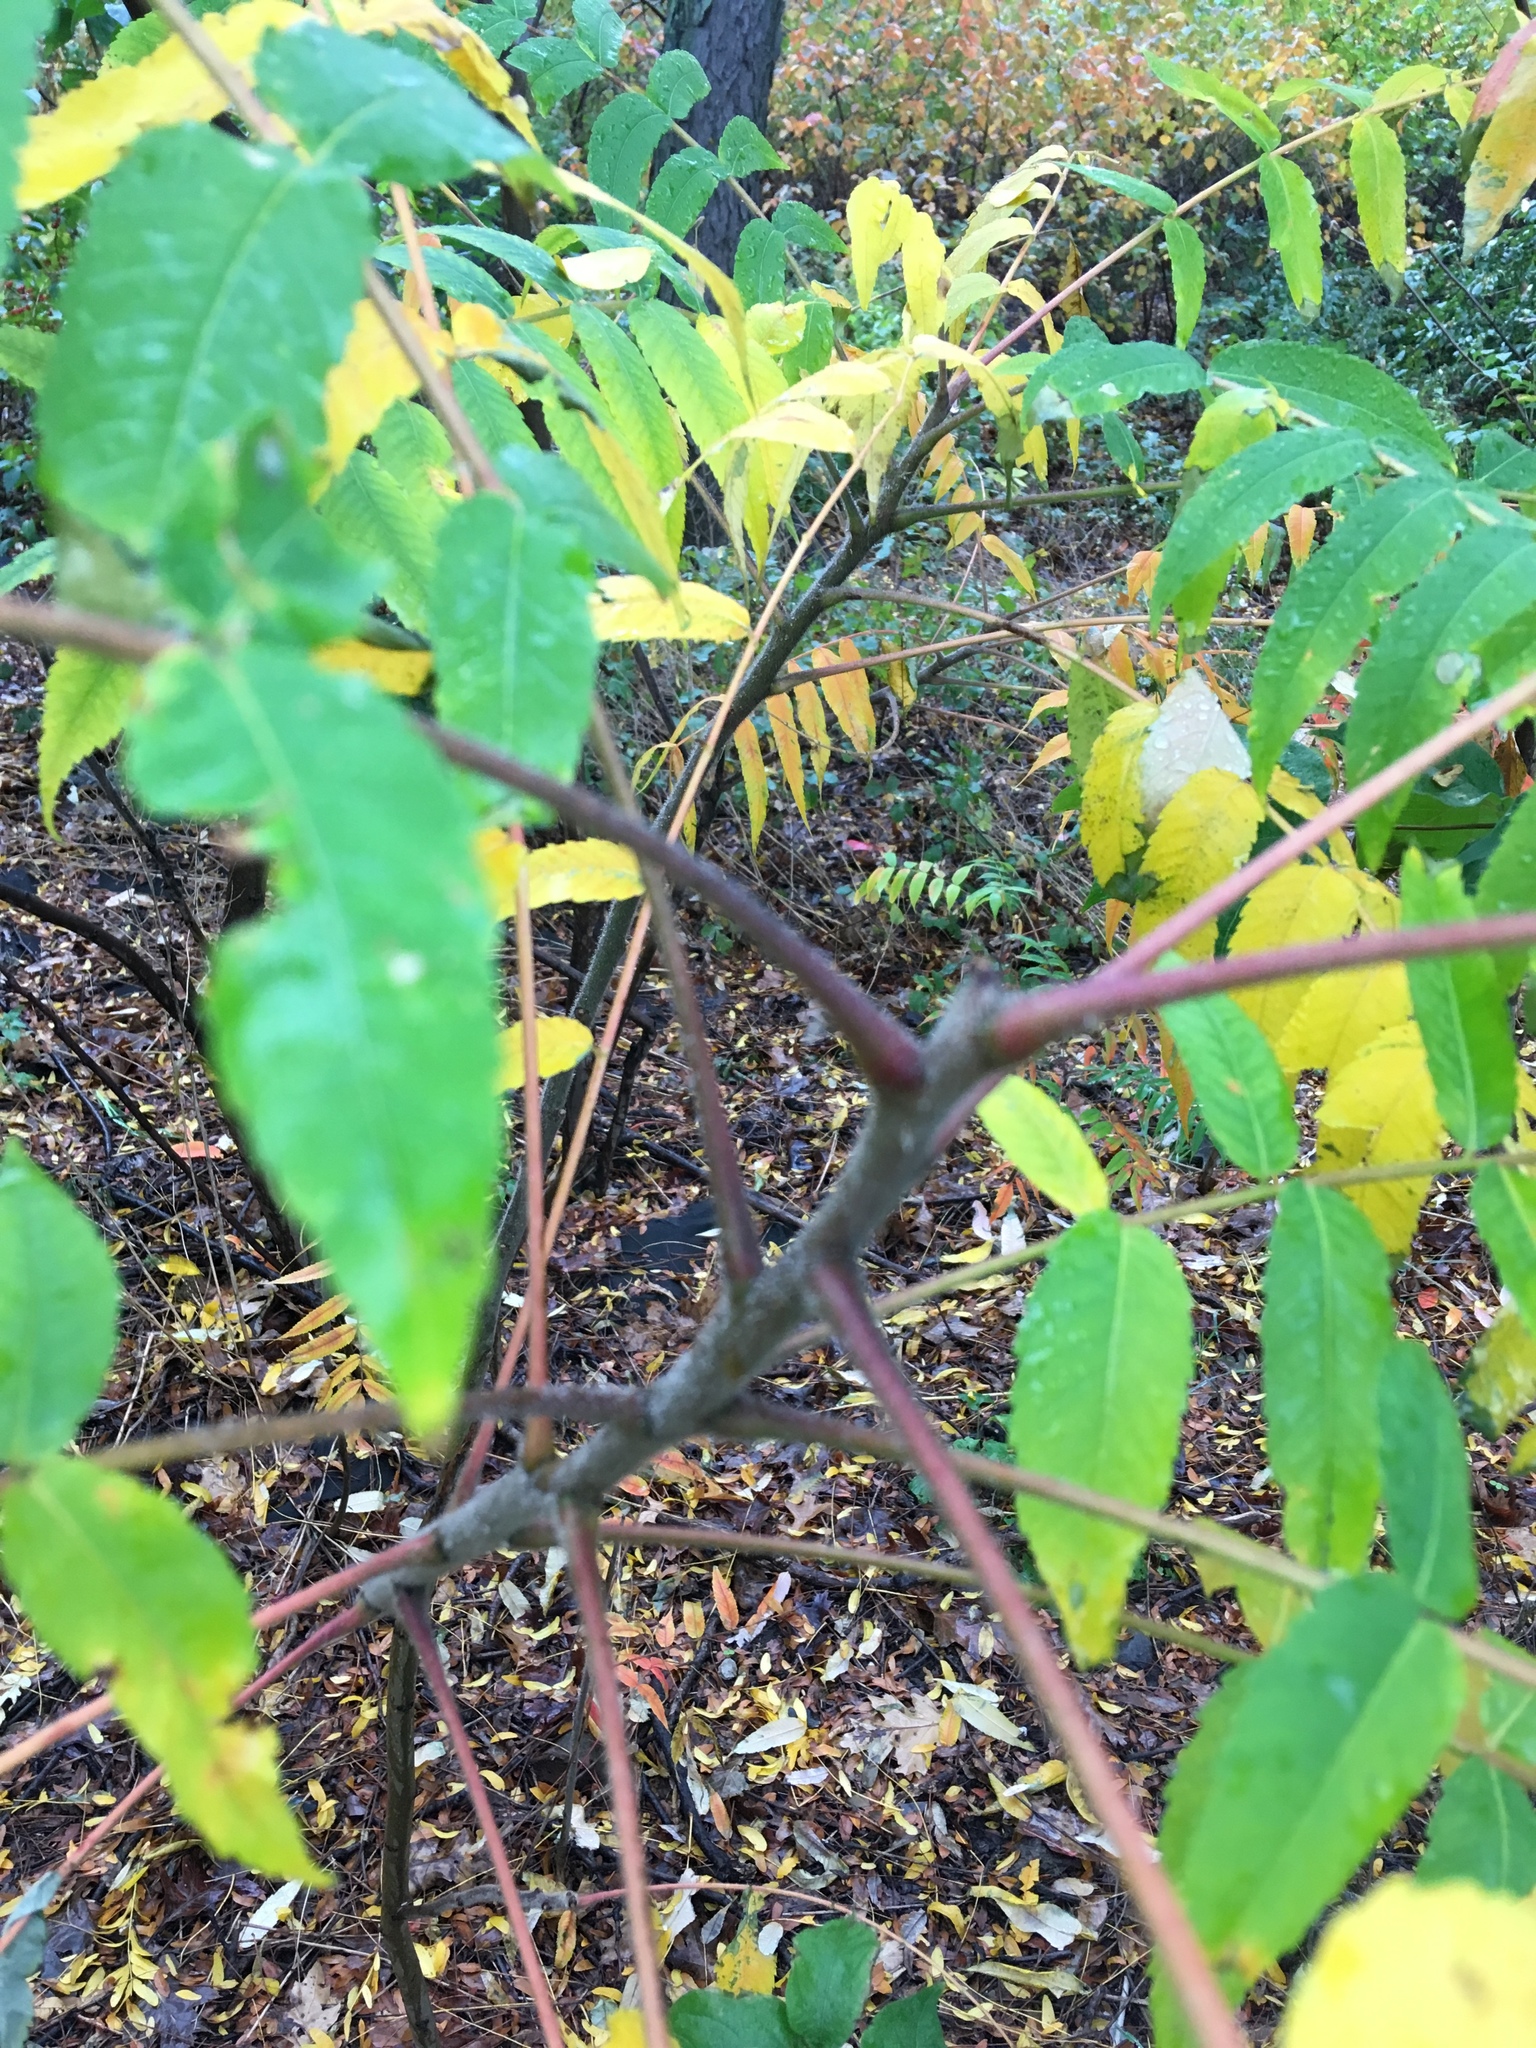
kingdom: Plantae
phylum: Tracheophyta
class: Magnoliopsida
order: Sapindales
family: Anacardiaceae
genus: Rhus
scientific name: Rhus typhina
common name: Staghorn sumac
